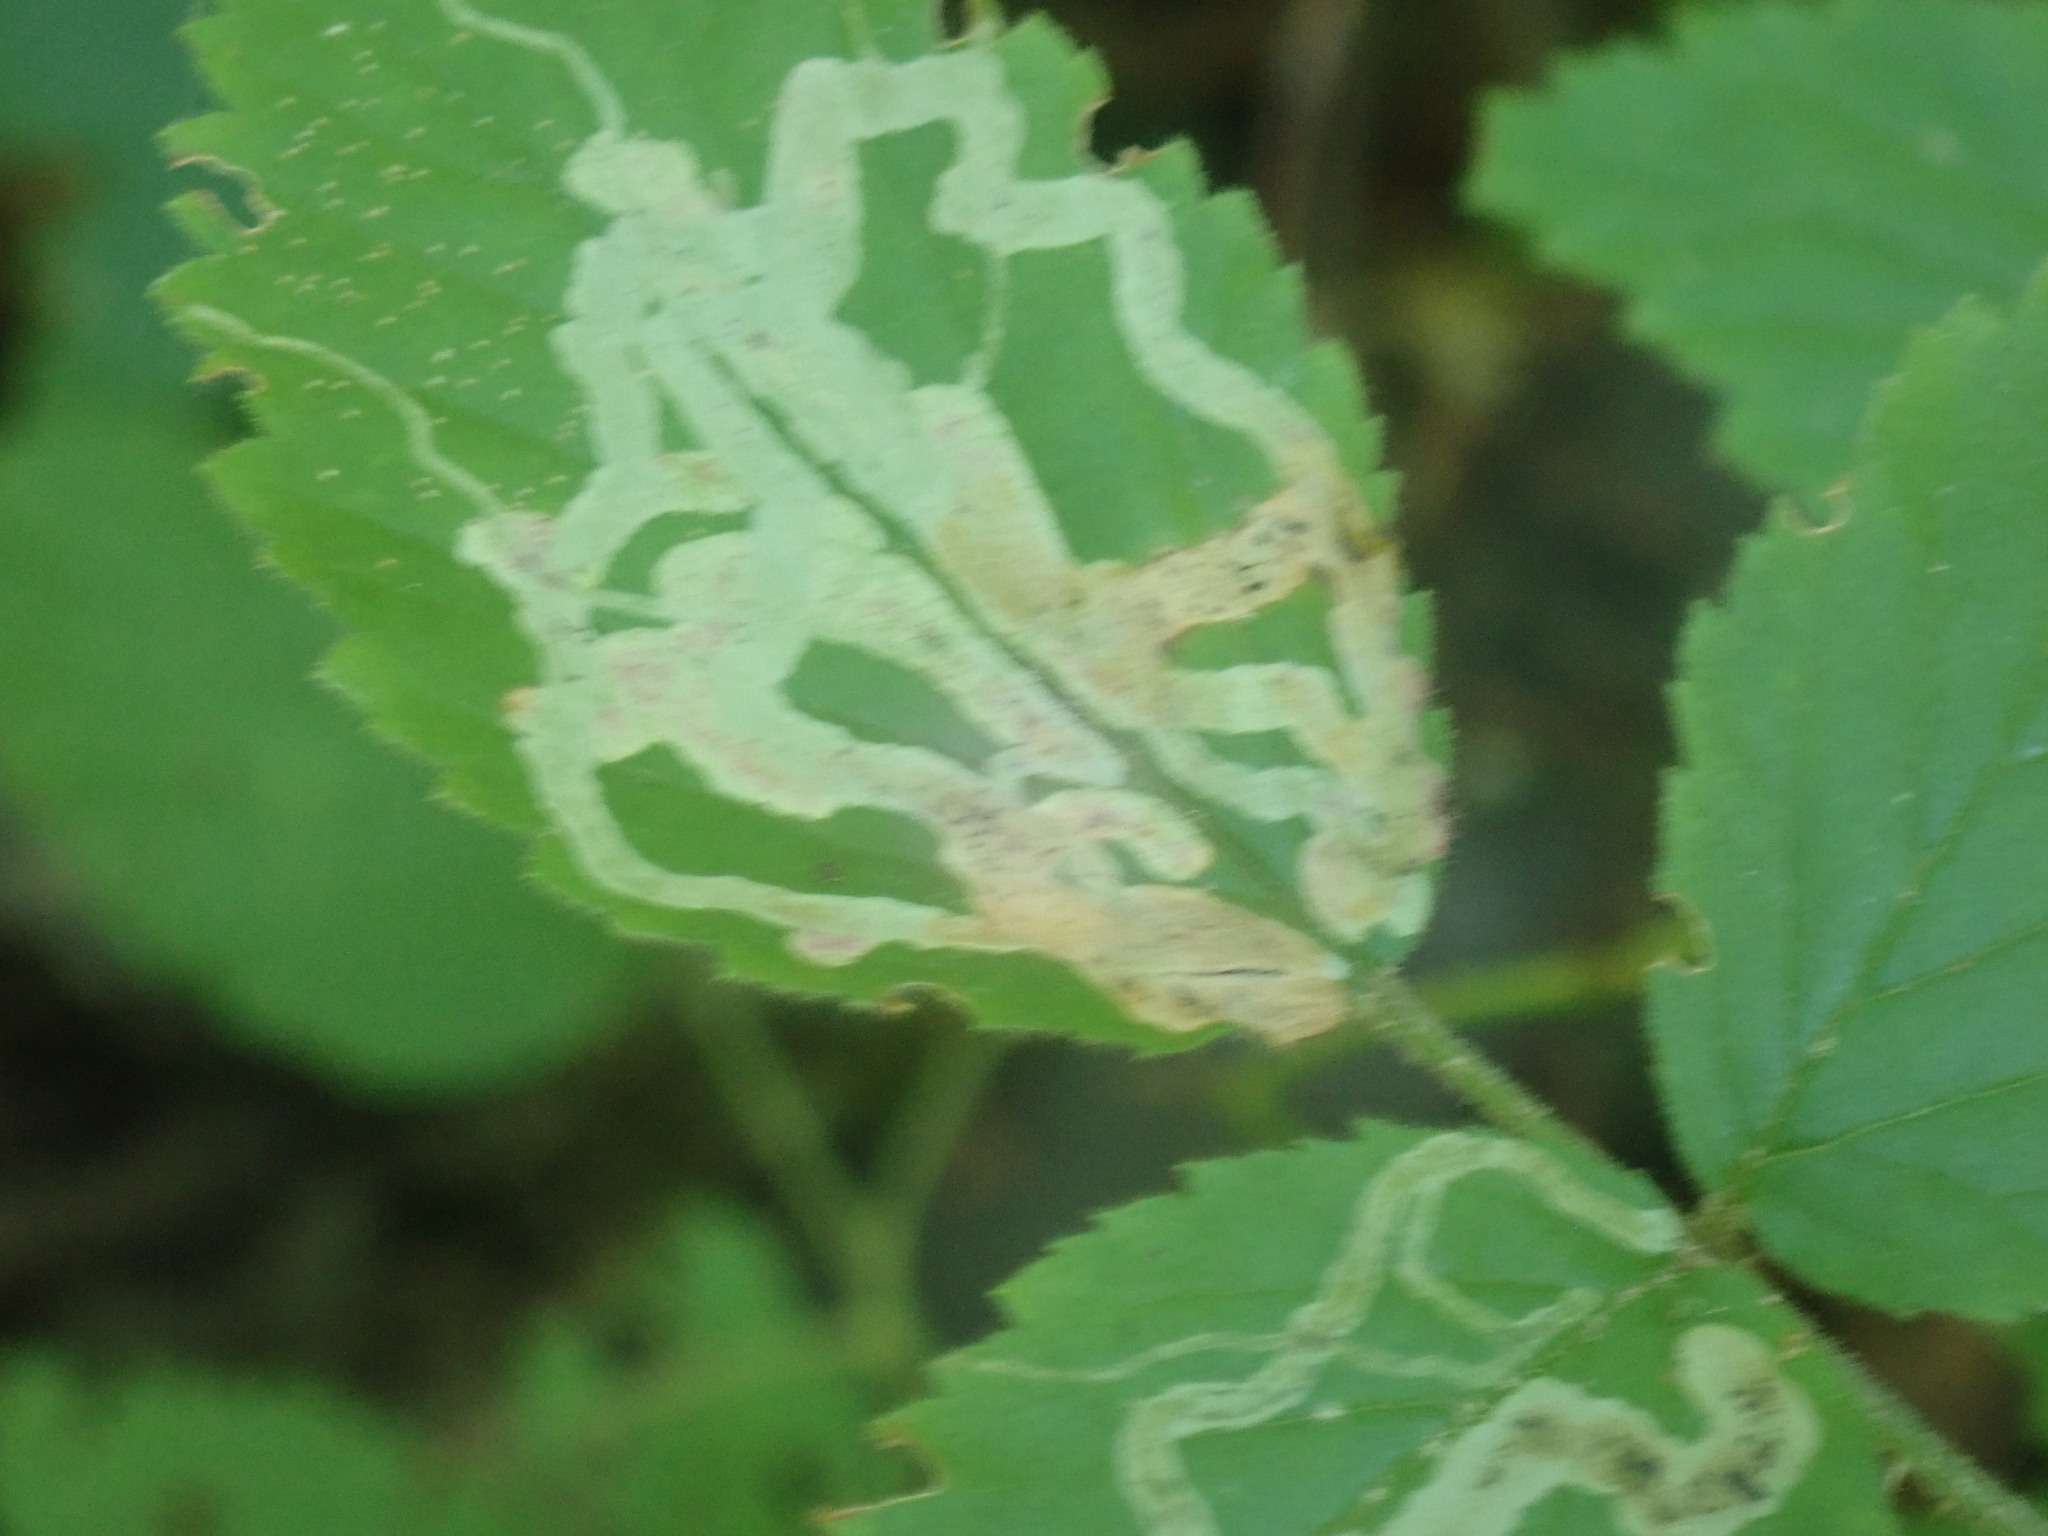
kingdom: Animalia
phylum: Arthropoda
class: Insecta
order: Diptera
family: Agromyzidae
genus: Agromyza
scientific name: Agromyza vockerothi
